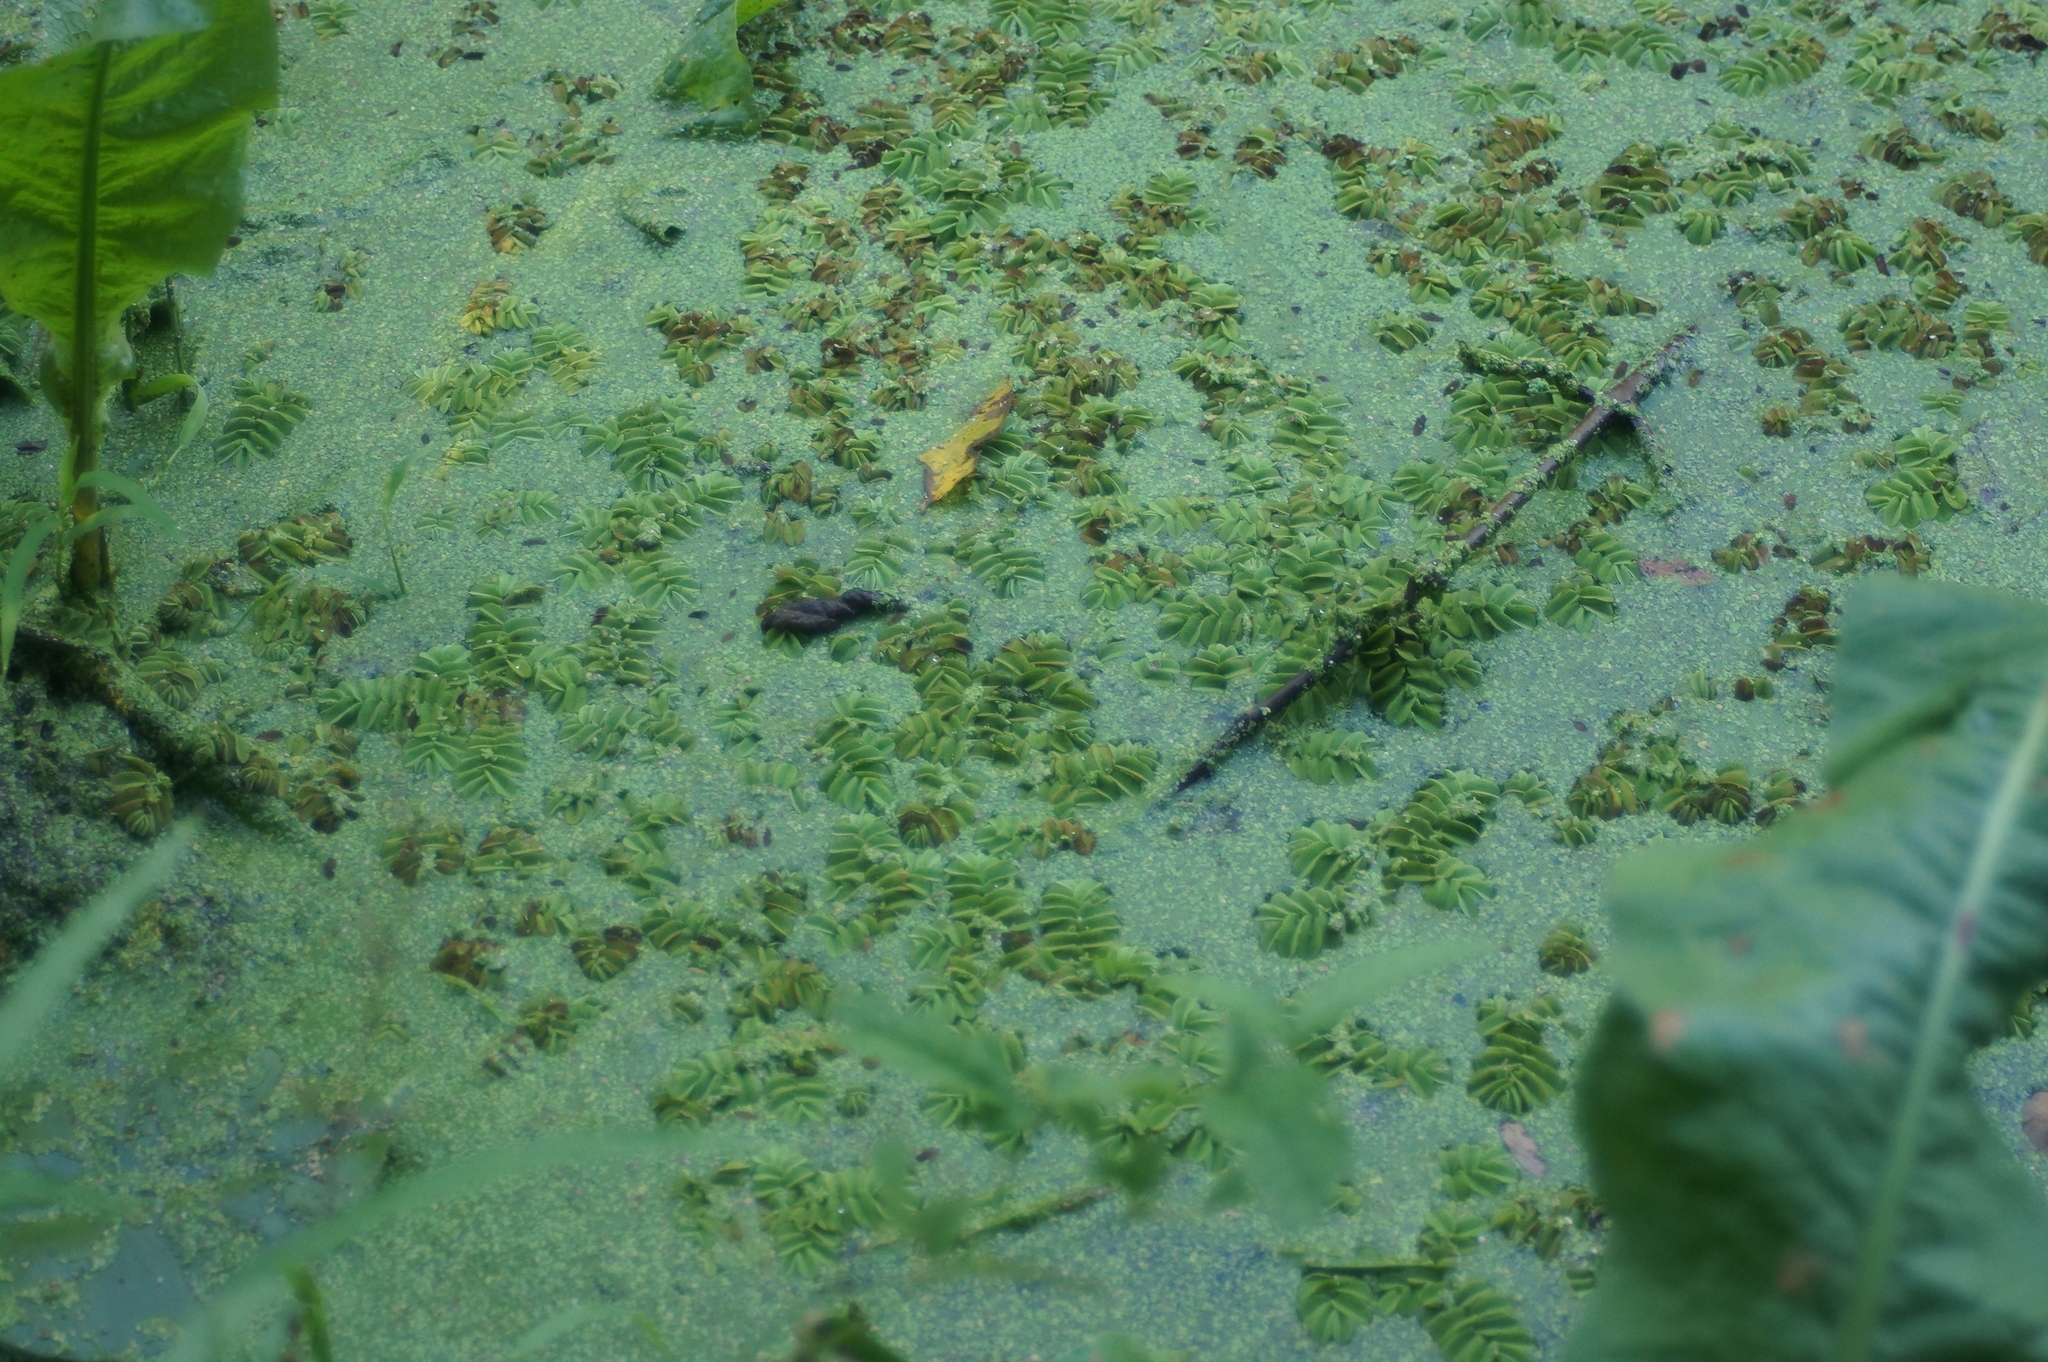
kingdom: Plantae
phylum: Tracheophyta
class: Polypodiopsida
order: Salviniales
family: Salviniaceae
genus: Salvinia
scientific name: Salvinia natans
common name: Floating fern
